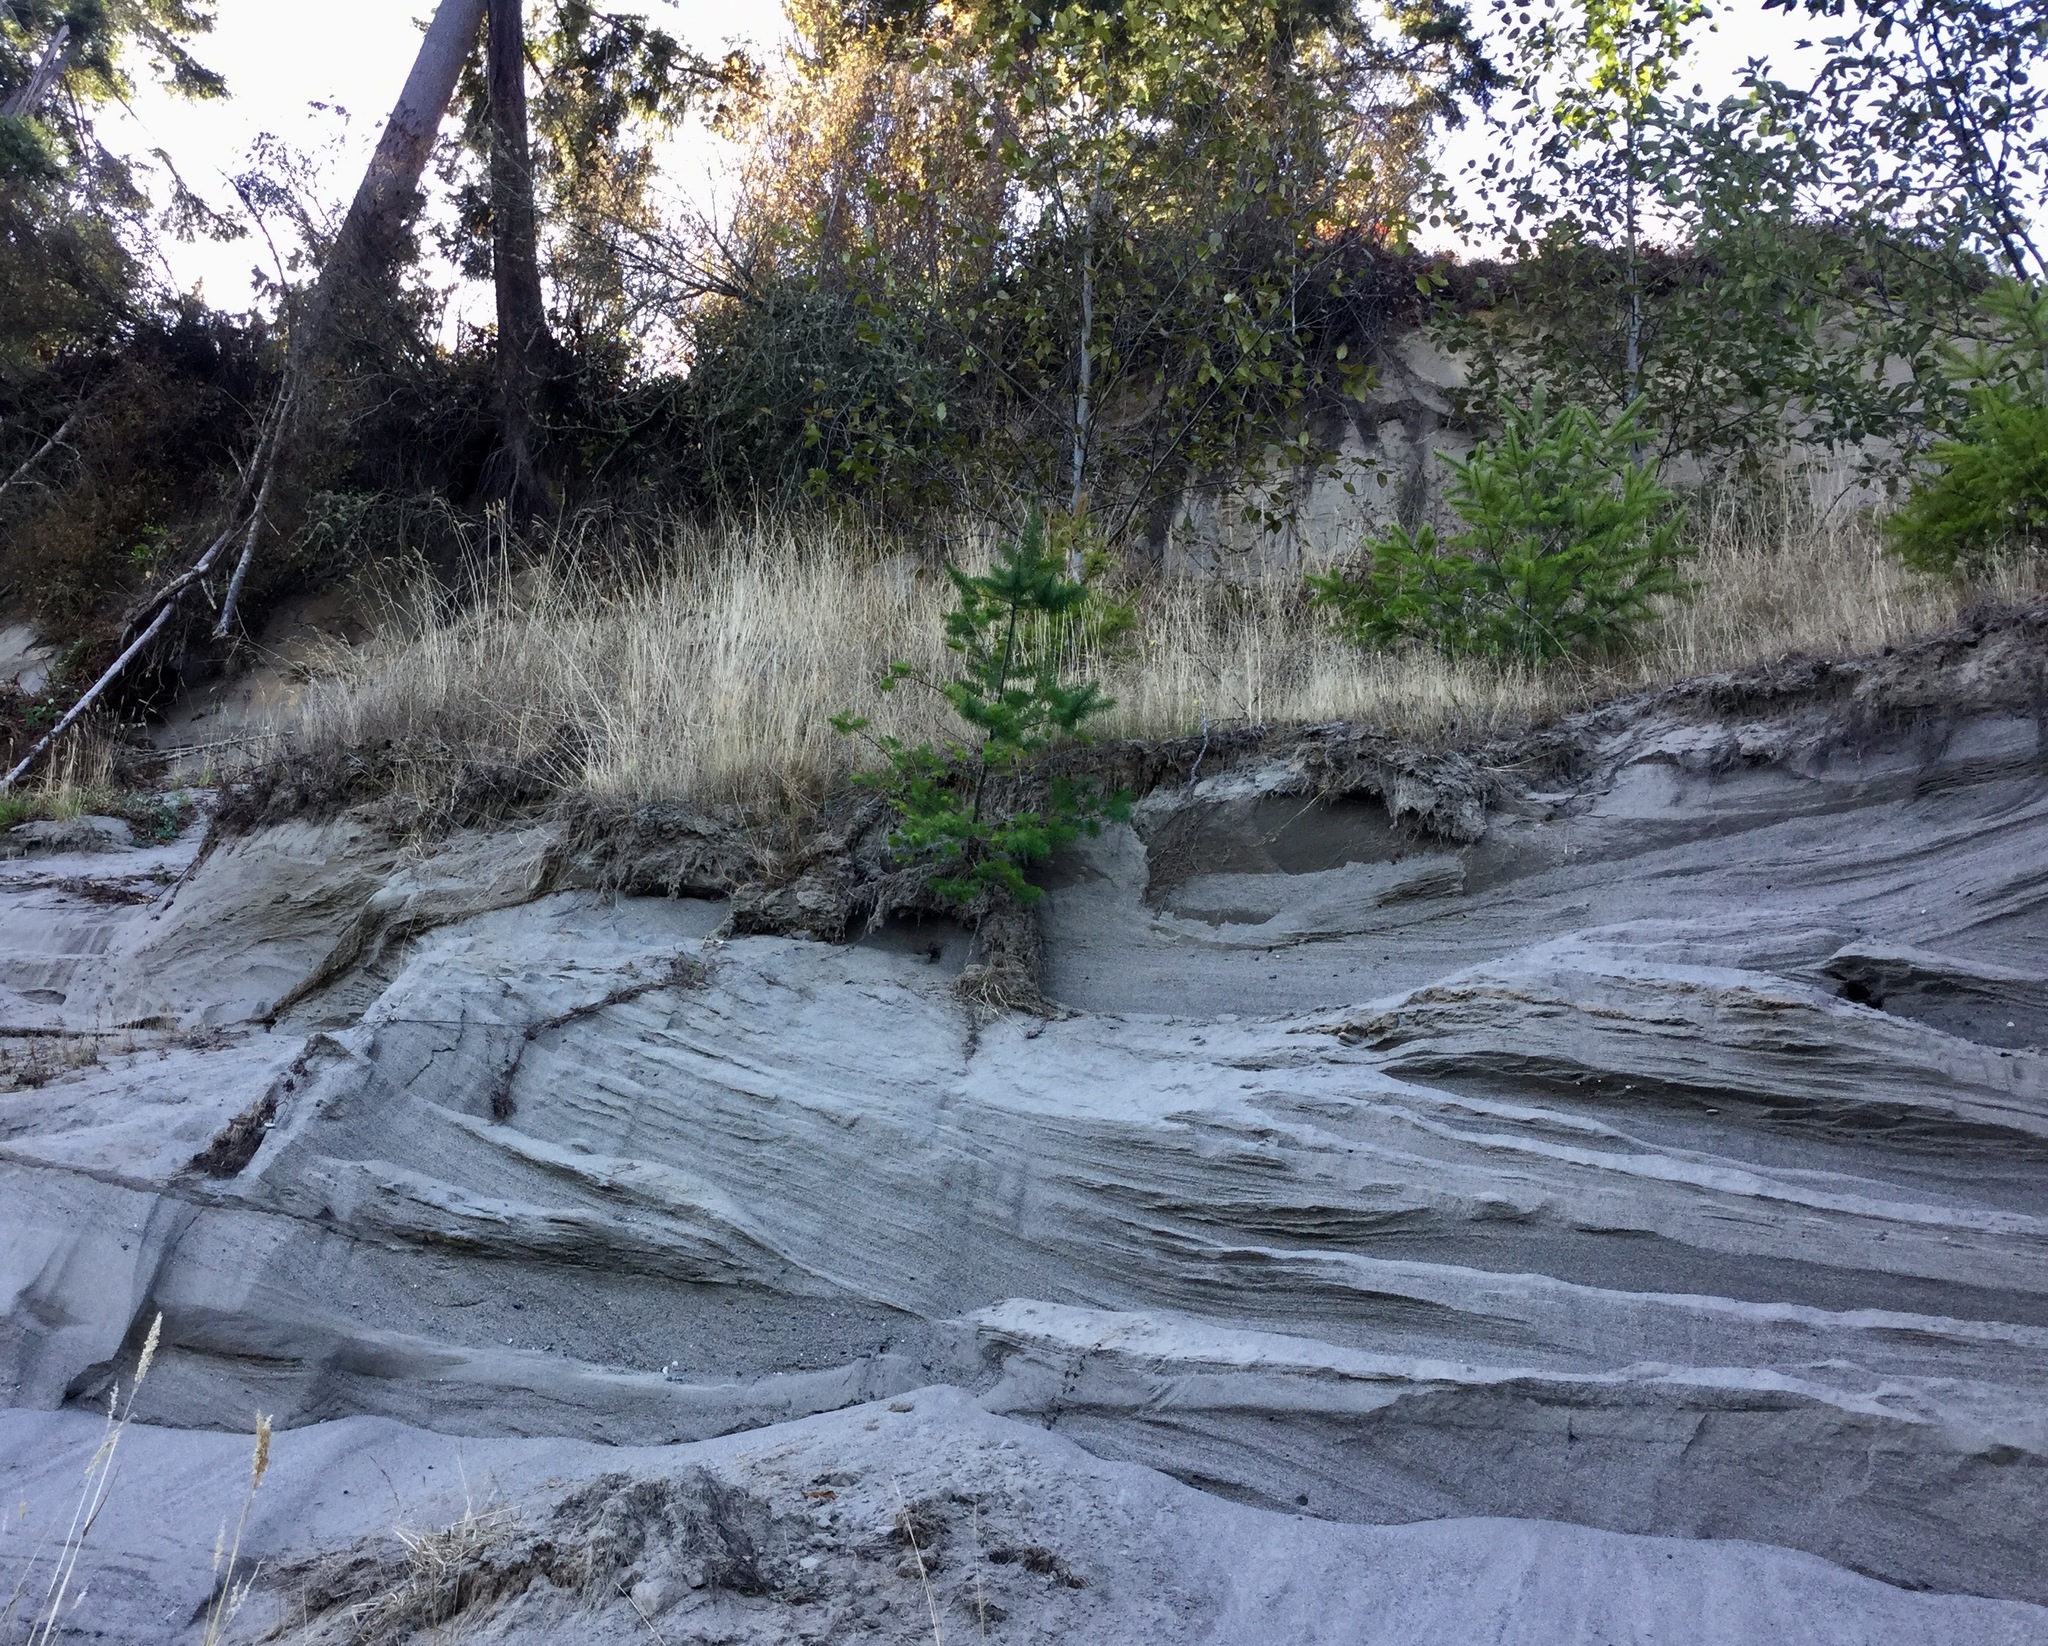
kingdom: Plantae
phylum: Tracheophyta
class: Pinopsida
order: Pinales
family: Pinaceae
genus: Pseudotsuga
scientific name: Pseudotsuga menziesii
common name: Douglas fir
